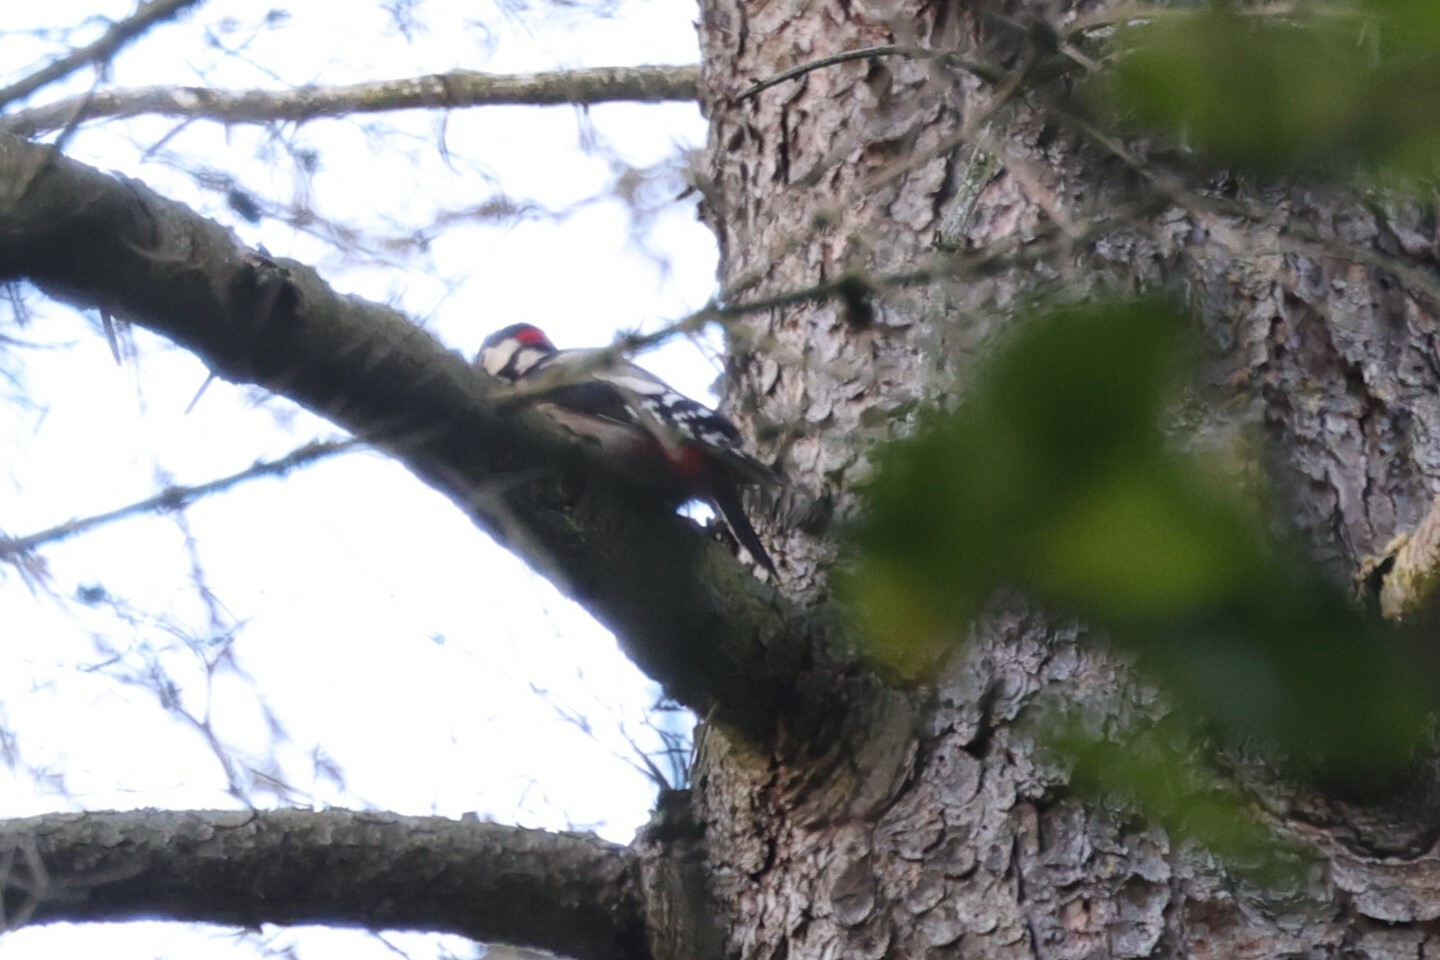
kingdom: Animalia
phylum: Chordata
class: Aves
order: Piciformes
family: Picidae
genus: Dendrocopos
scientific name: Dendrocopos major
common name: Great spotted woodpecker
